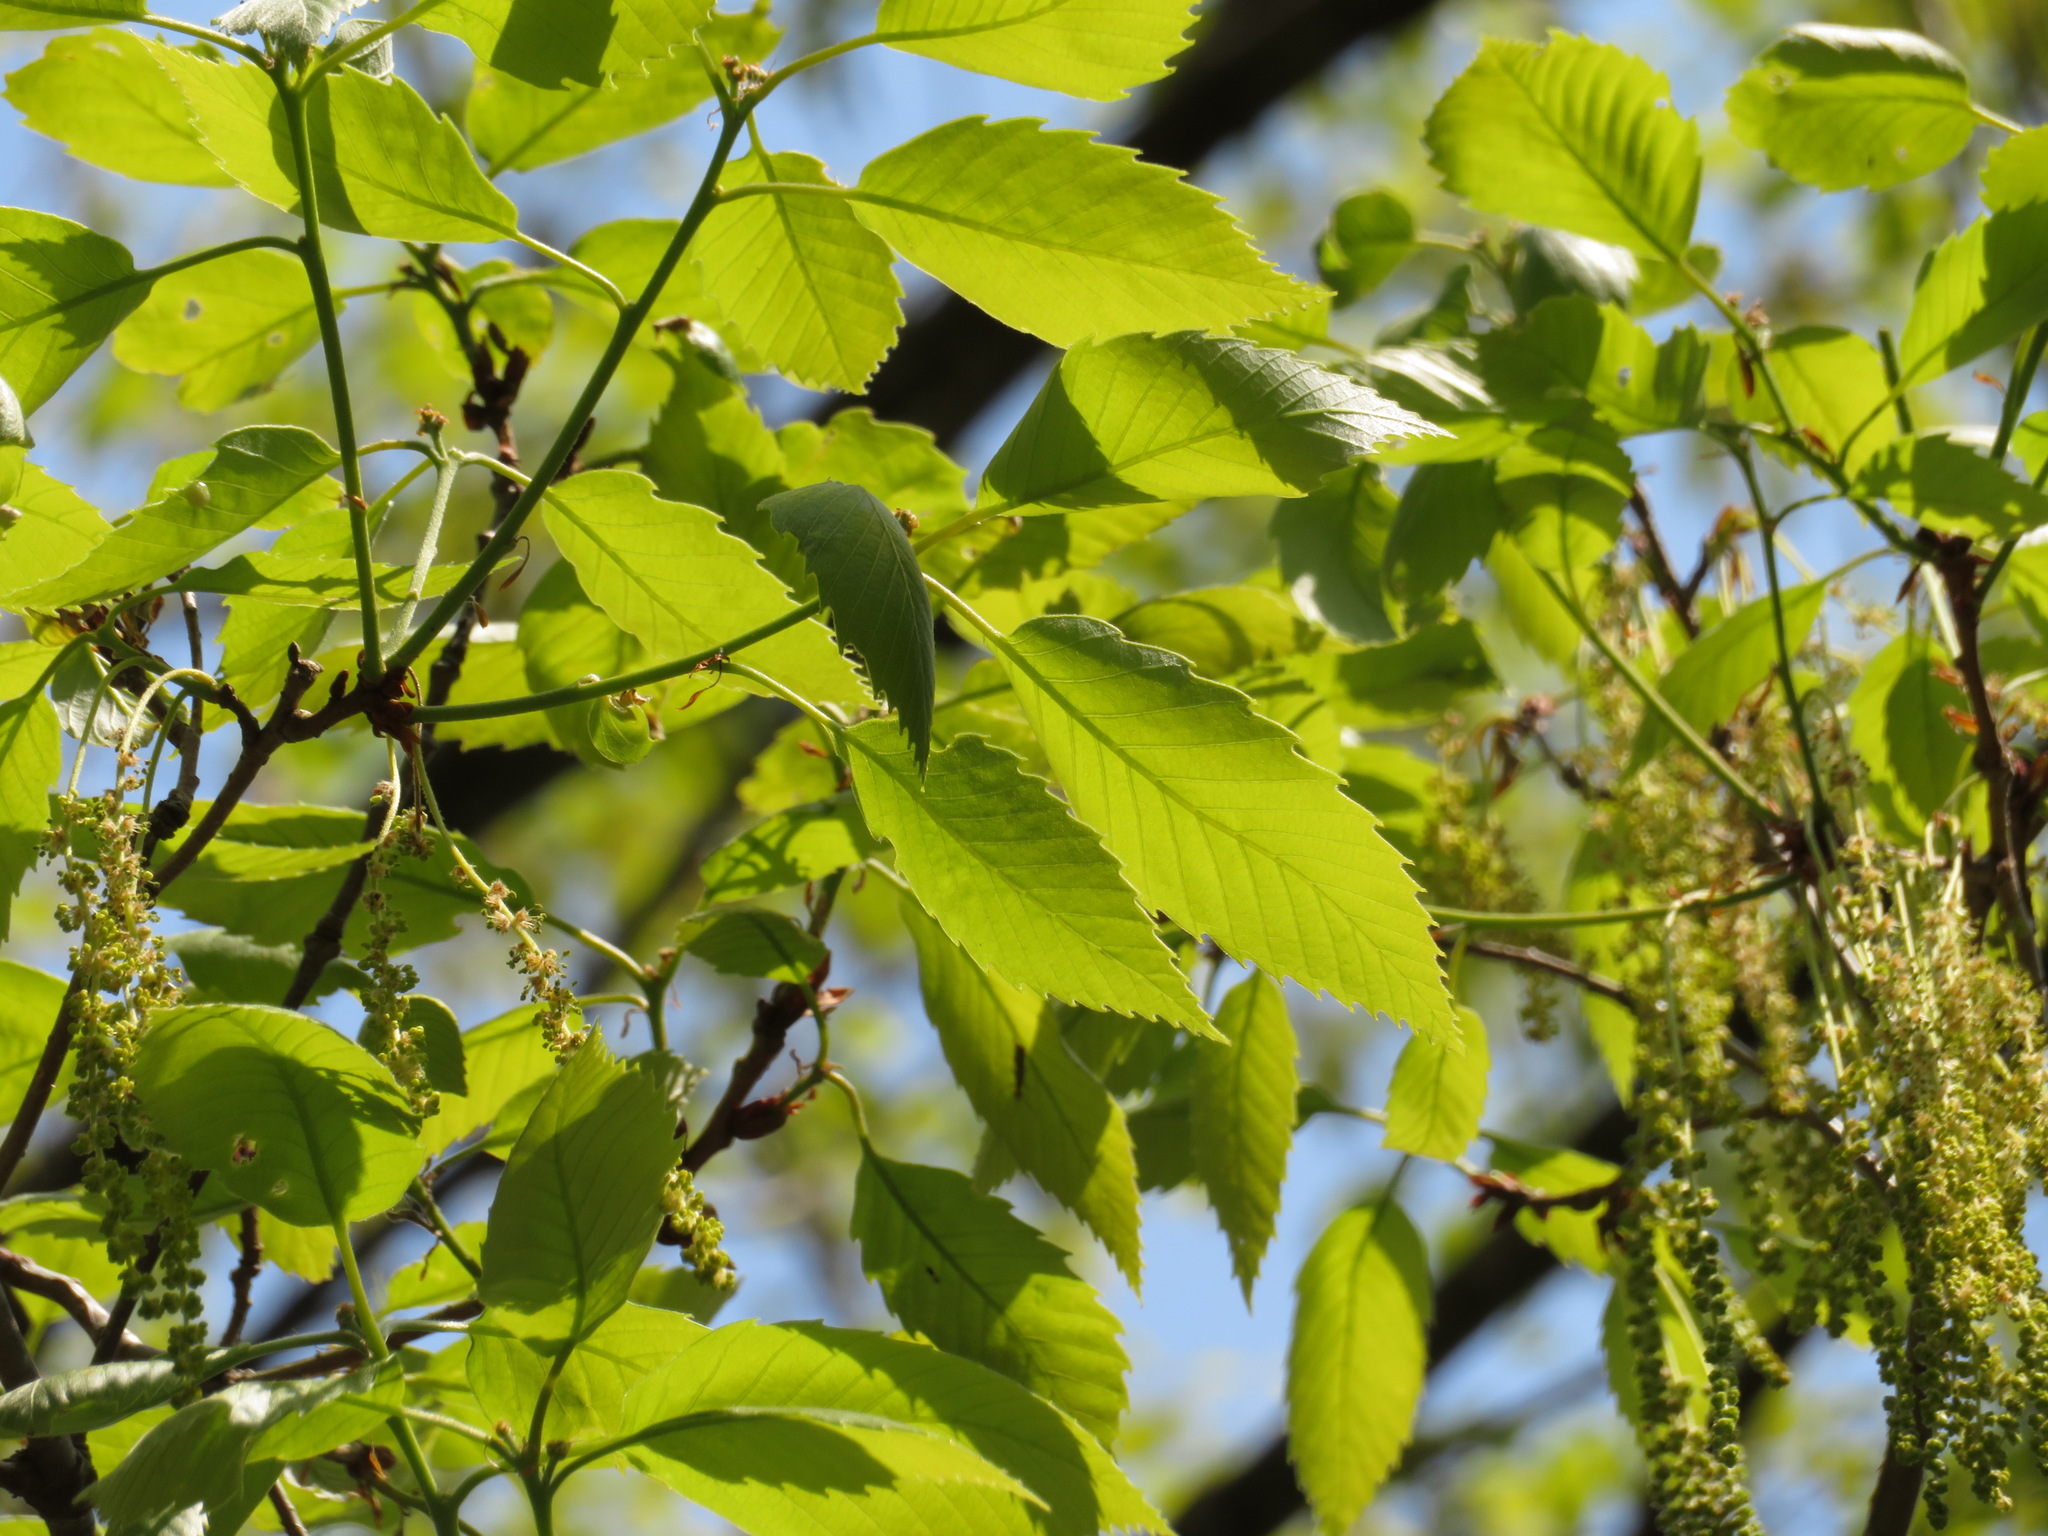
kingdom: Plantae
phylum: Tracheophyta
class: Magnoliopsida
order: Fagales
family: Fagaceae
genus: Quercus
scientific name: Quercus serrata
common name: Bao li
